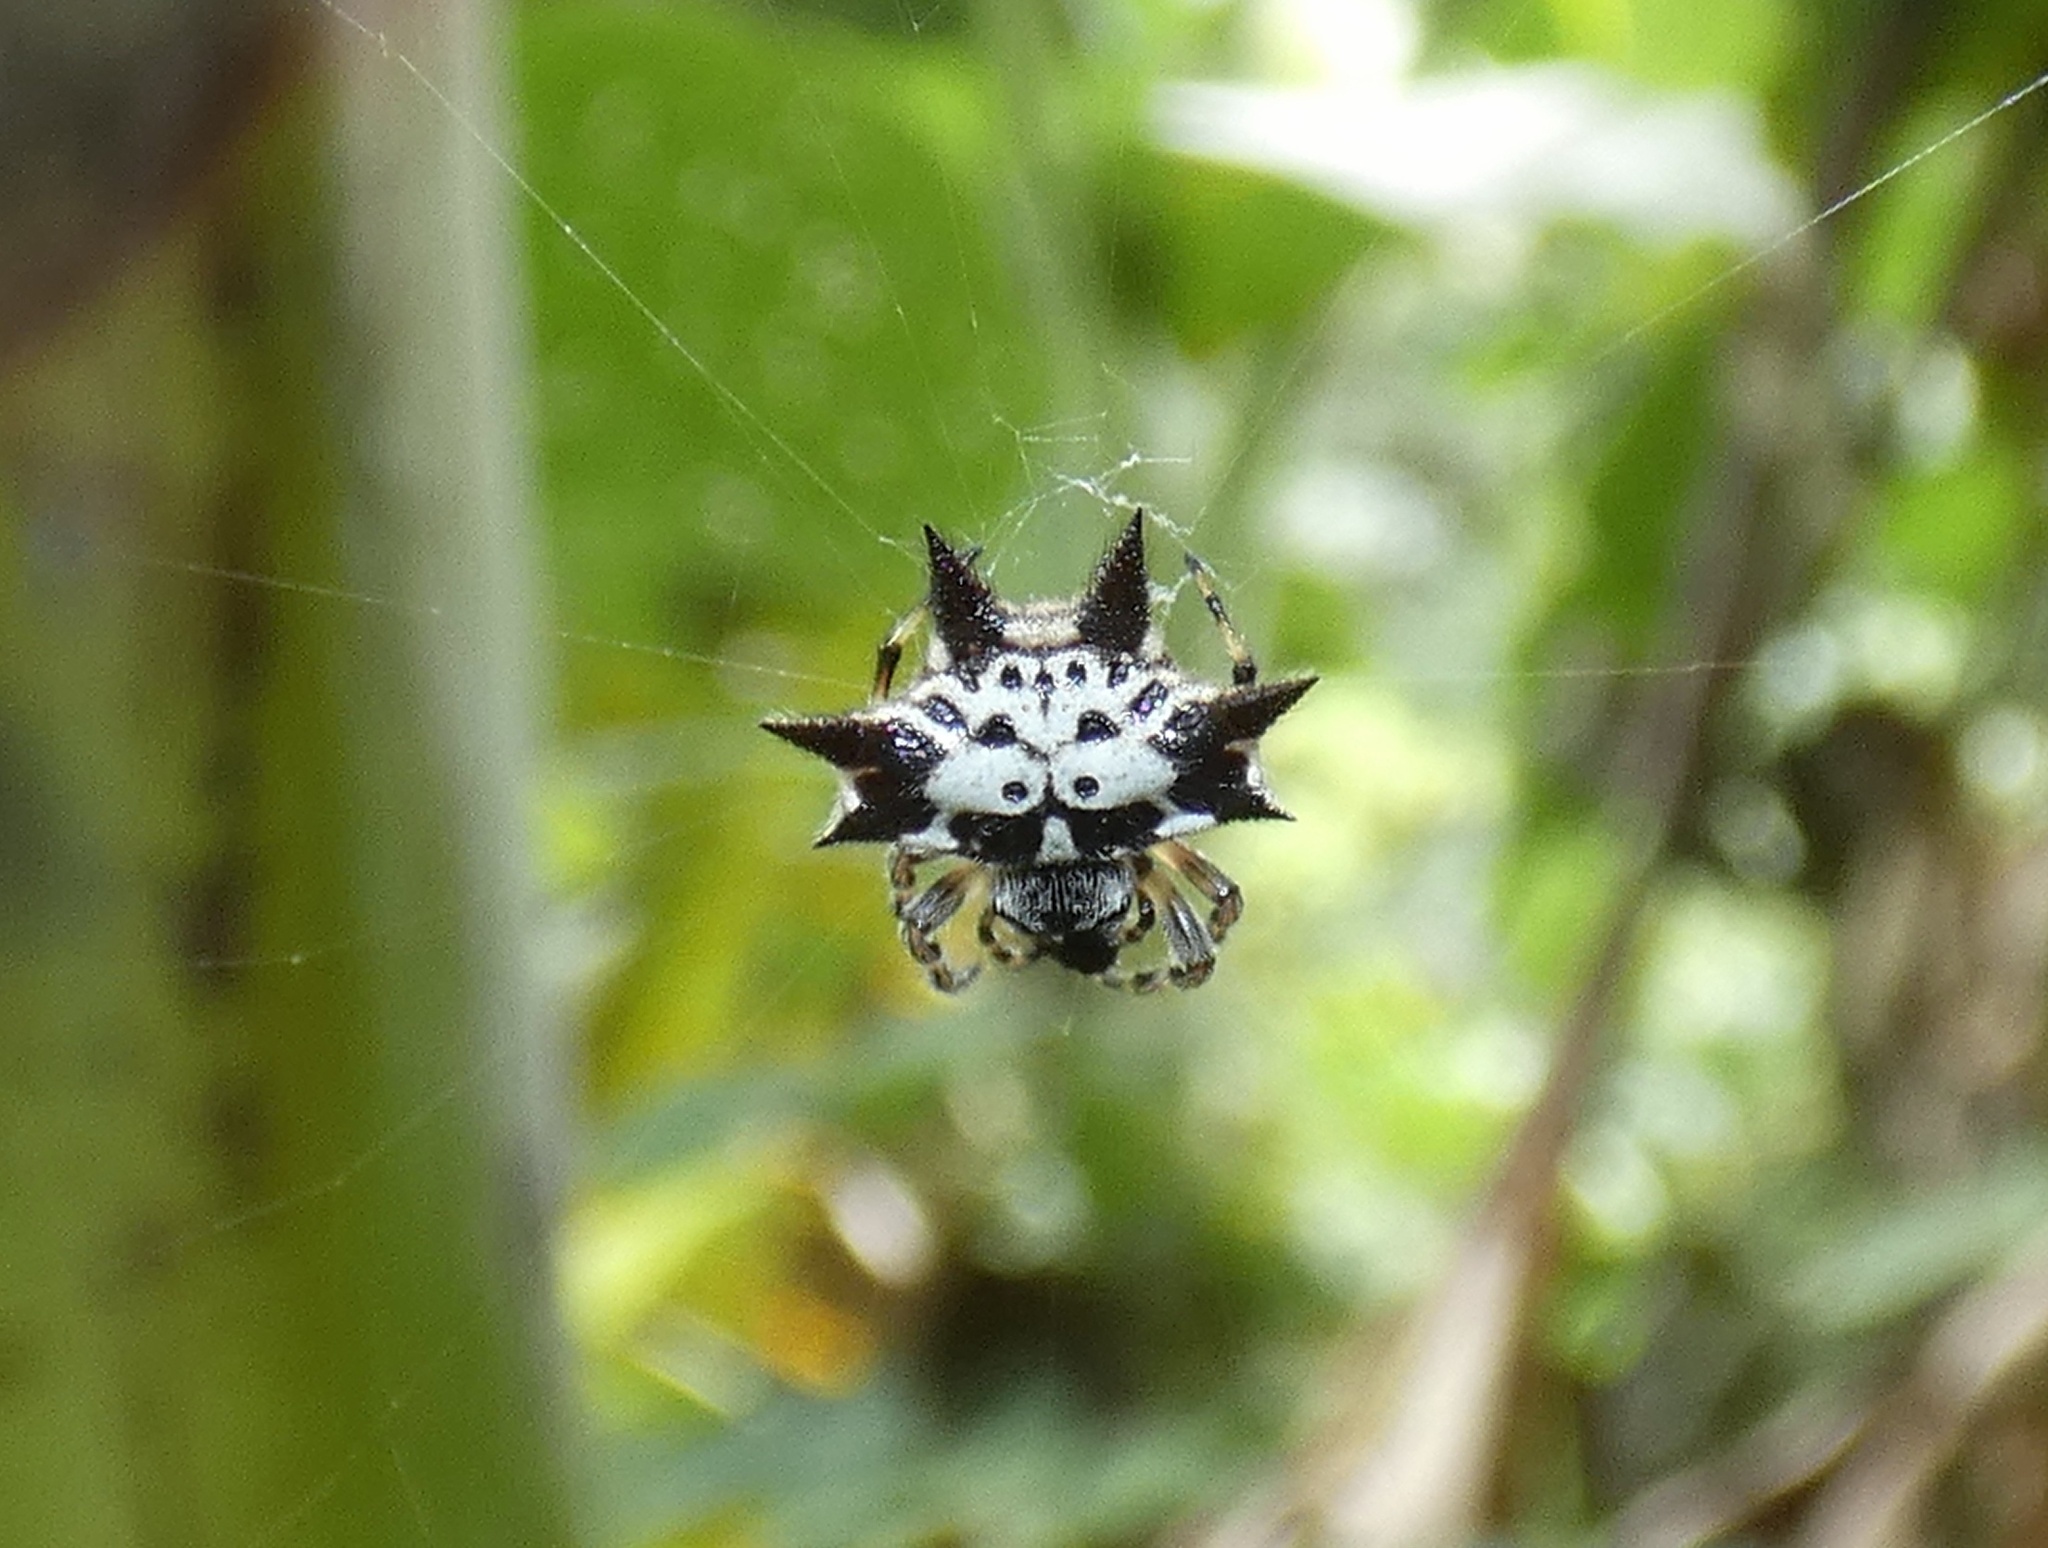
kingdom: Animalia
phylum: Arthropoda
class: Arachnida
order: Araneae
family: Araneidae
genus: Gasteracantha
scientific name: Gasteracantha kuhli
